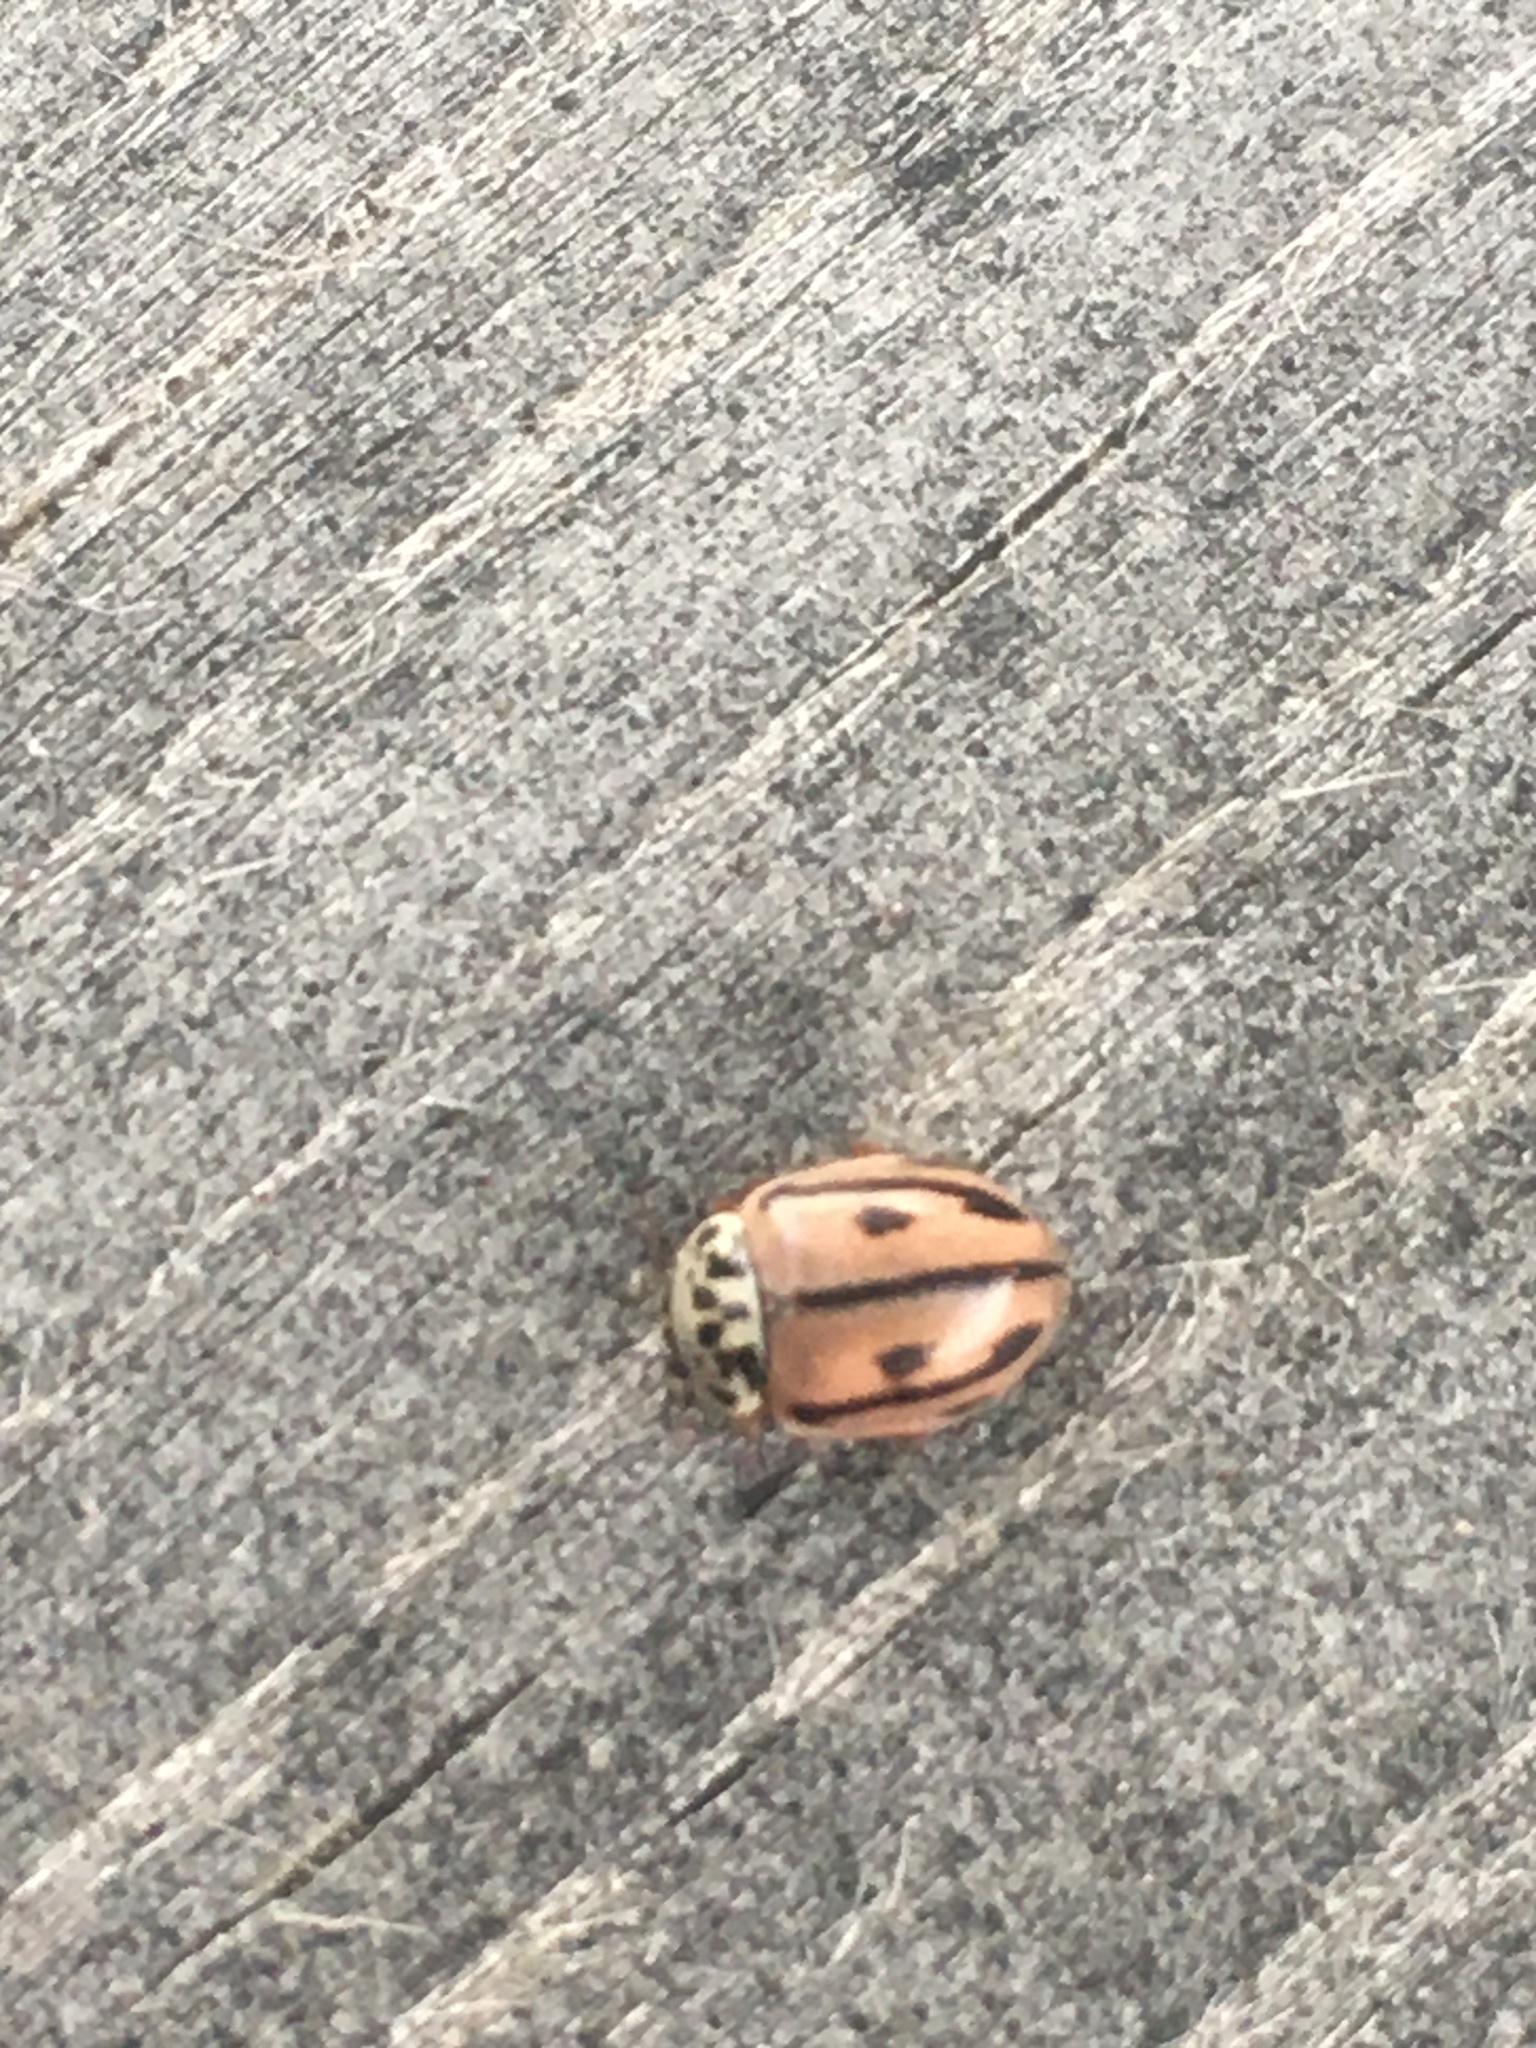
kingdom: Animalia
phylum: Arthropoda
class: Insecta
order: Coleoptera
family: Coccinellidae
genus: Mulsantina
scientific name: Mulsantina hudsonica
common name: Hudsonian ladybird
